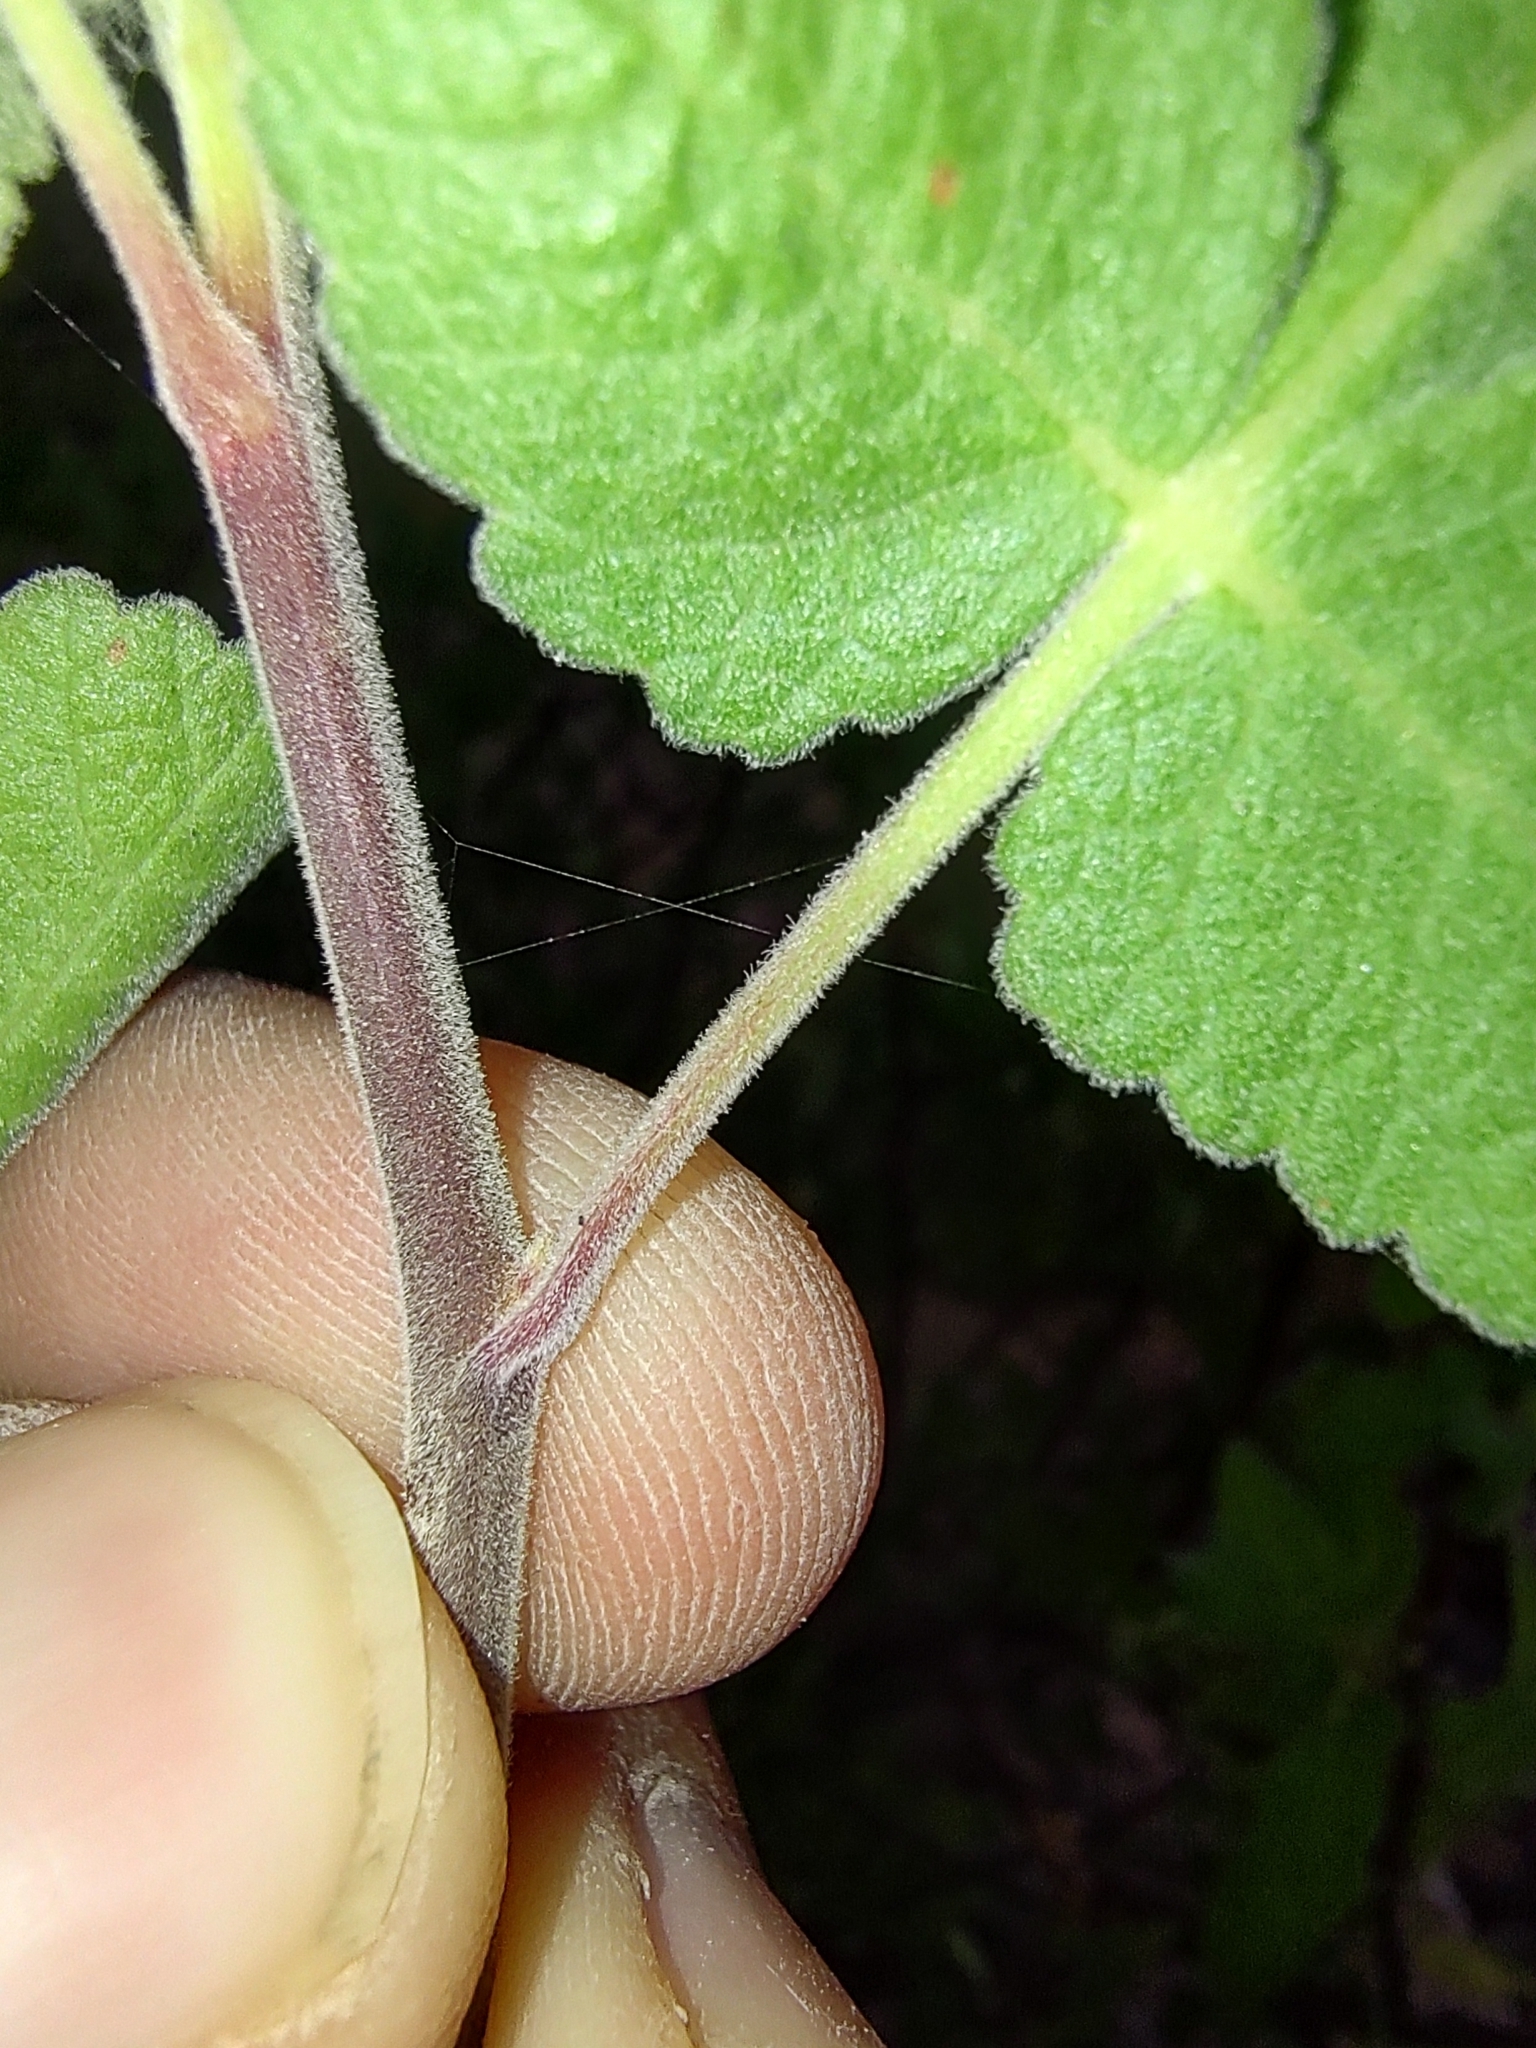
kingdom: Plantae
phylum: Tracheophyta
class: Magnoliopsida
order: Sapindales
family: Burseraceae
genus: Bursera
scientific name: Bursera hindsiana
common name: Red elephant tree
